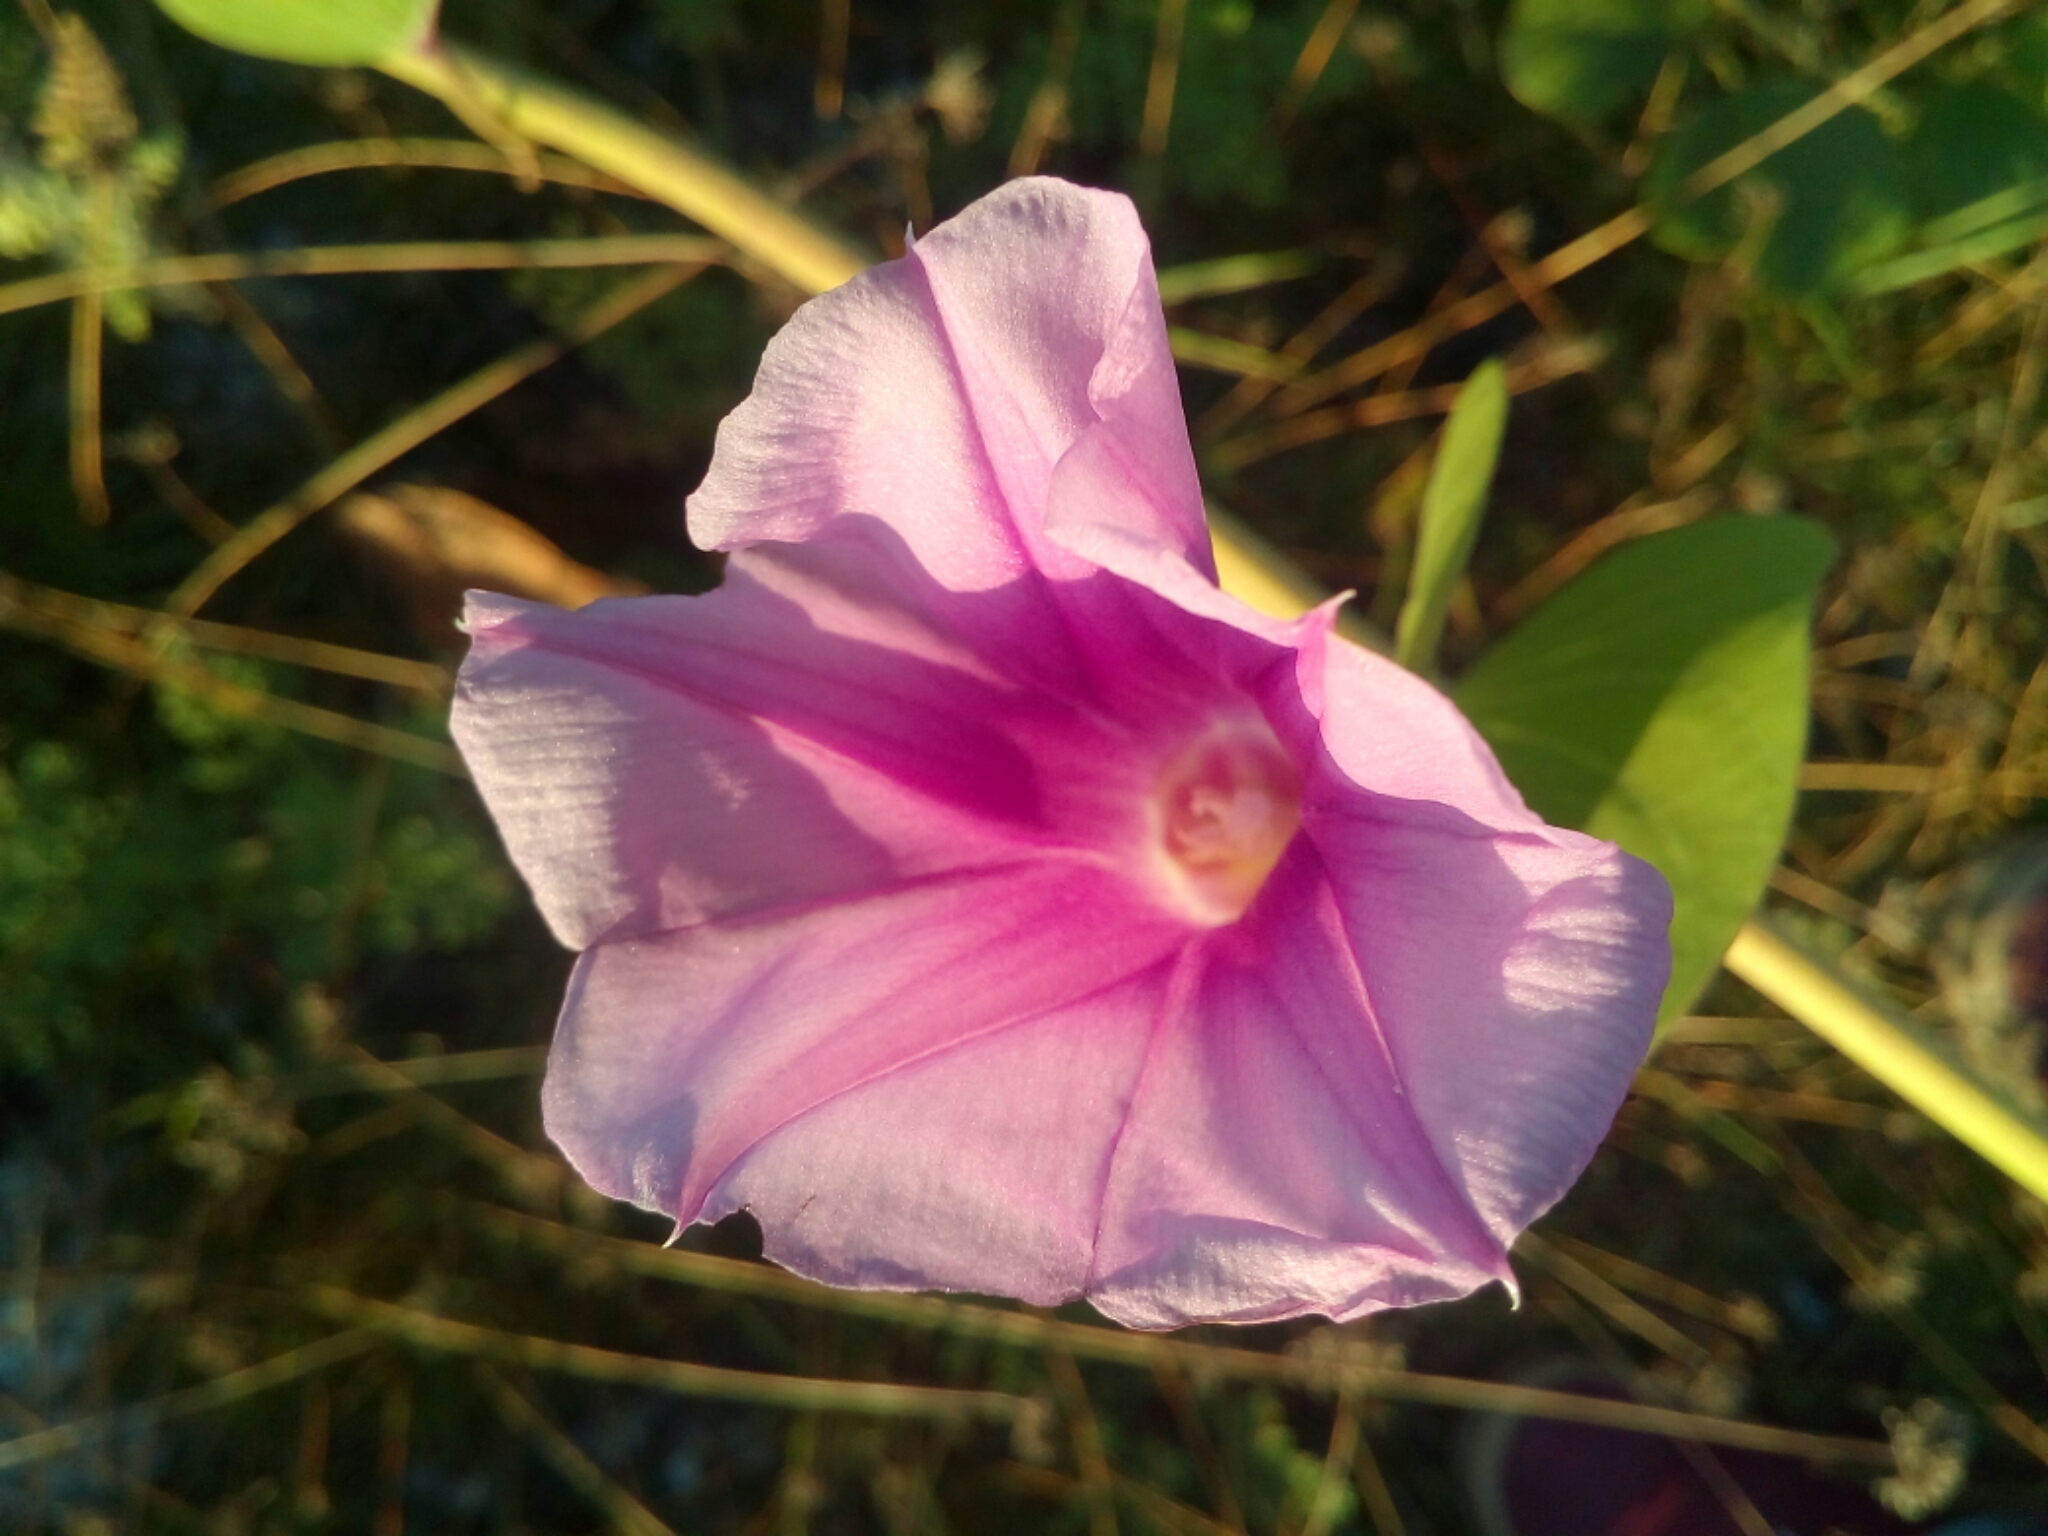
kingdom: Plantae
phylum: Tracheophyta
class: Magnoliopsida
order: Solanales
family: Convolvulaceae
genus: Ipomoea
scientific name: Ipomoea pes-caprae
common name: Beach morning glory
